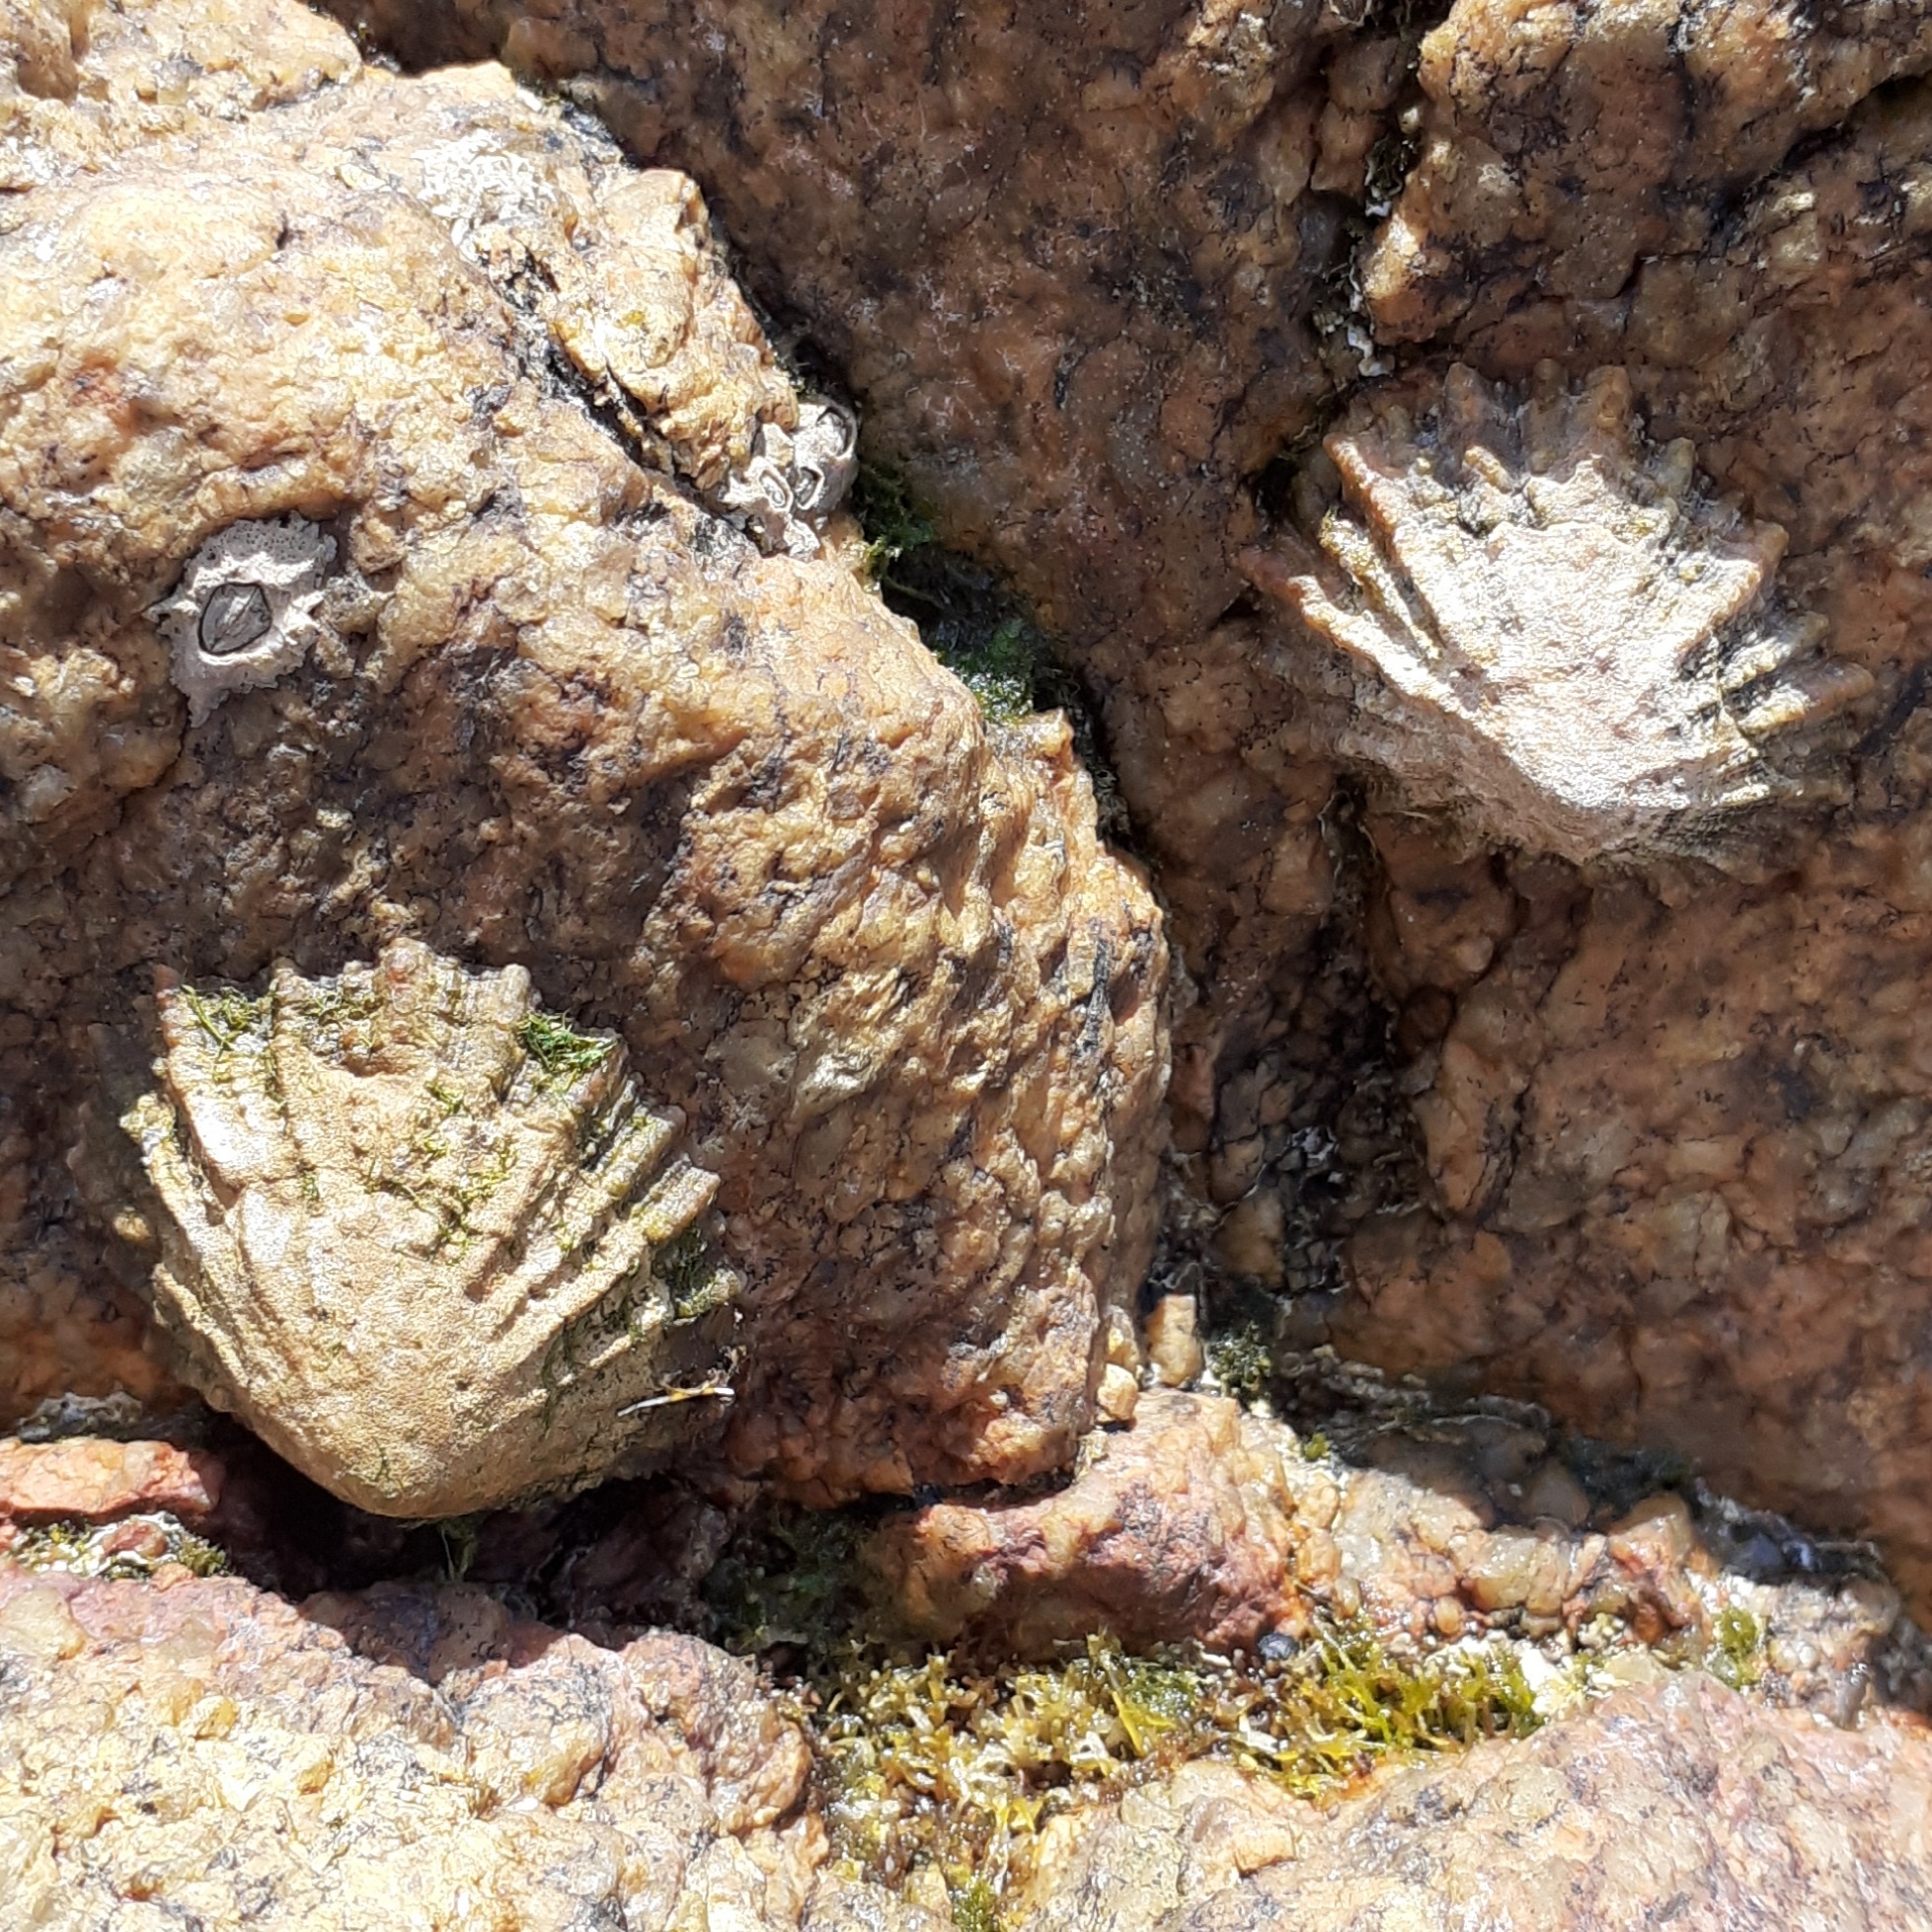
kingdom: Animalia
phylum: Mollusca
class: Gastropoda
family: Patellidae
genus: Patella
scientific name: Patella vulgata
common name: Common limpet
